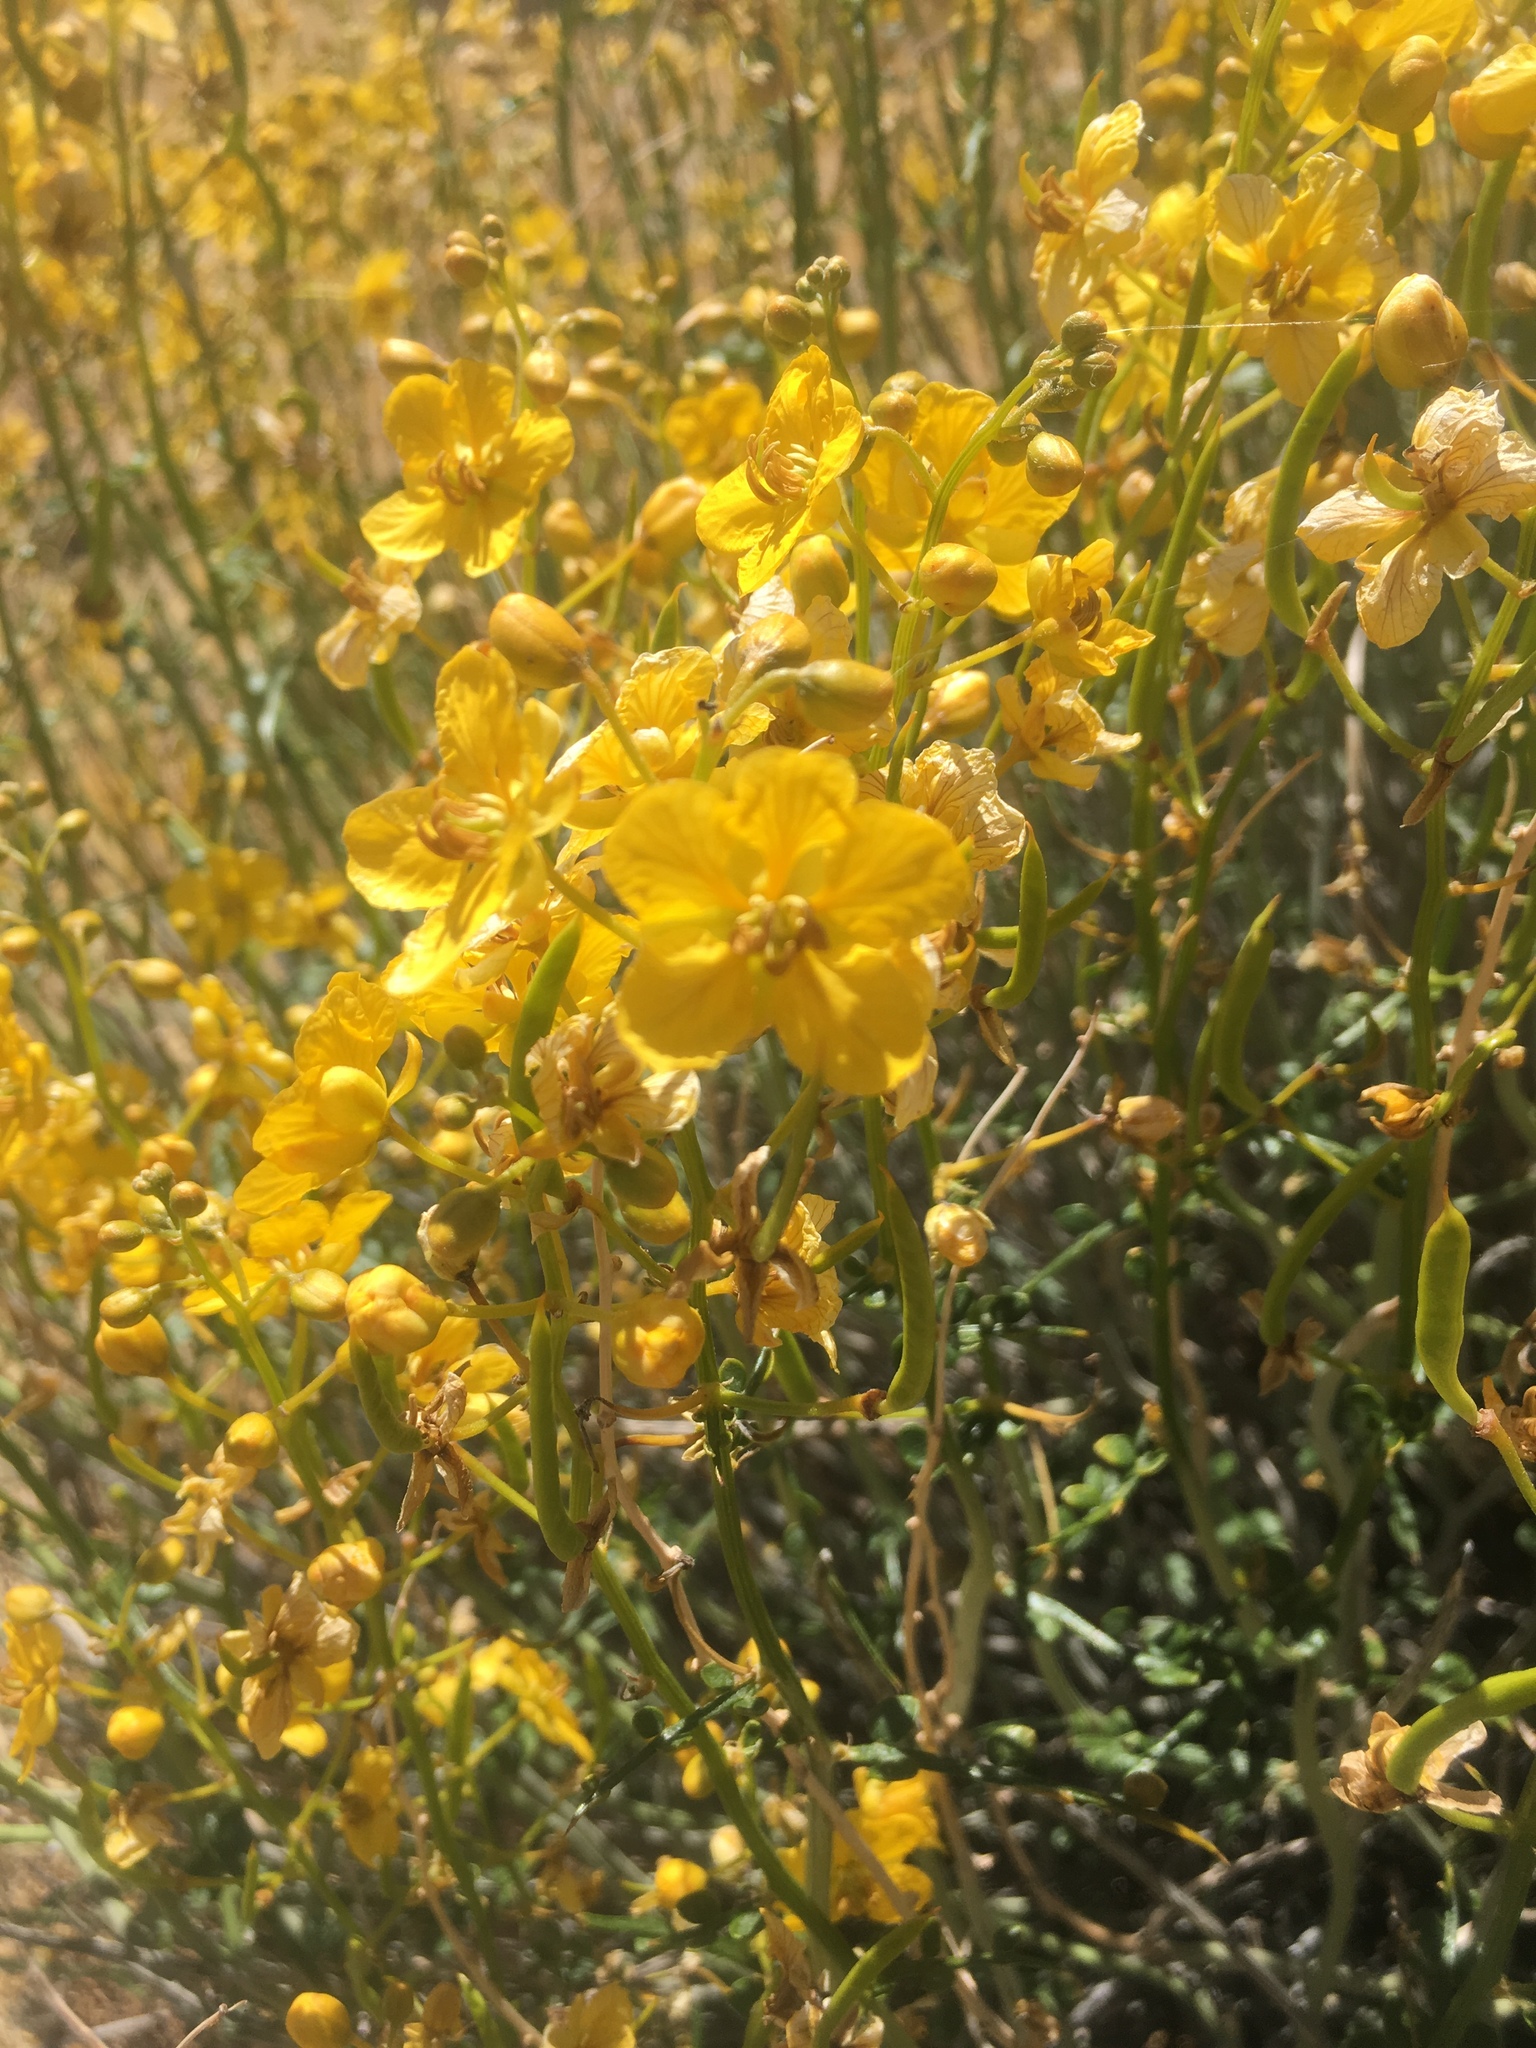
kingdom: Plantae
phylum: Tracheophyta
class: Magnoliopsida
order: Fabales
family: Fabaceae
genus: Senna
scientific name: Senna armata
